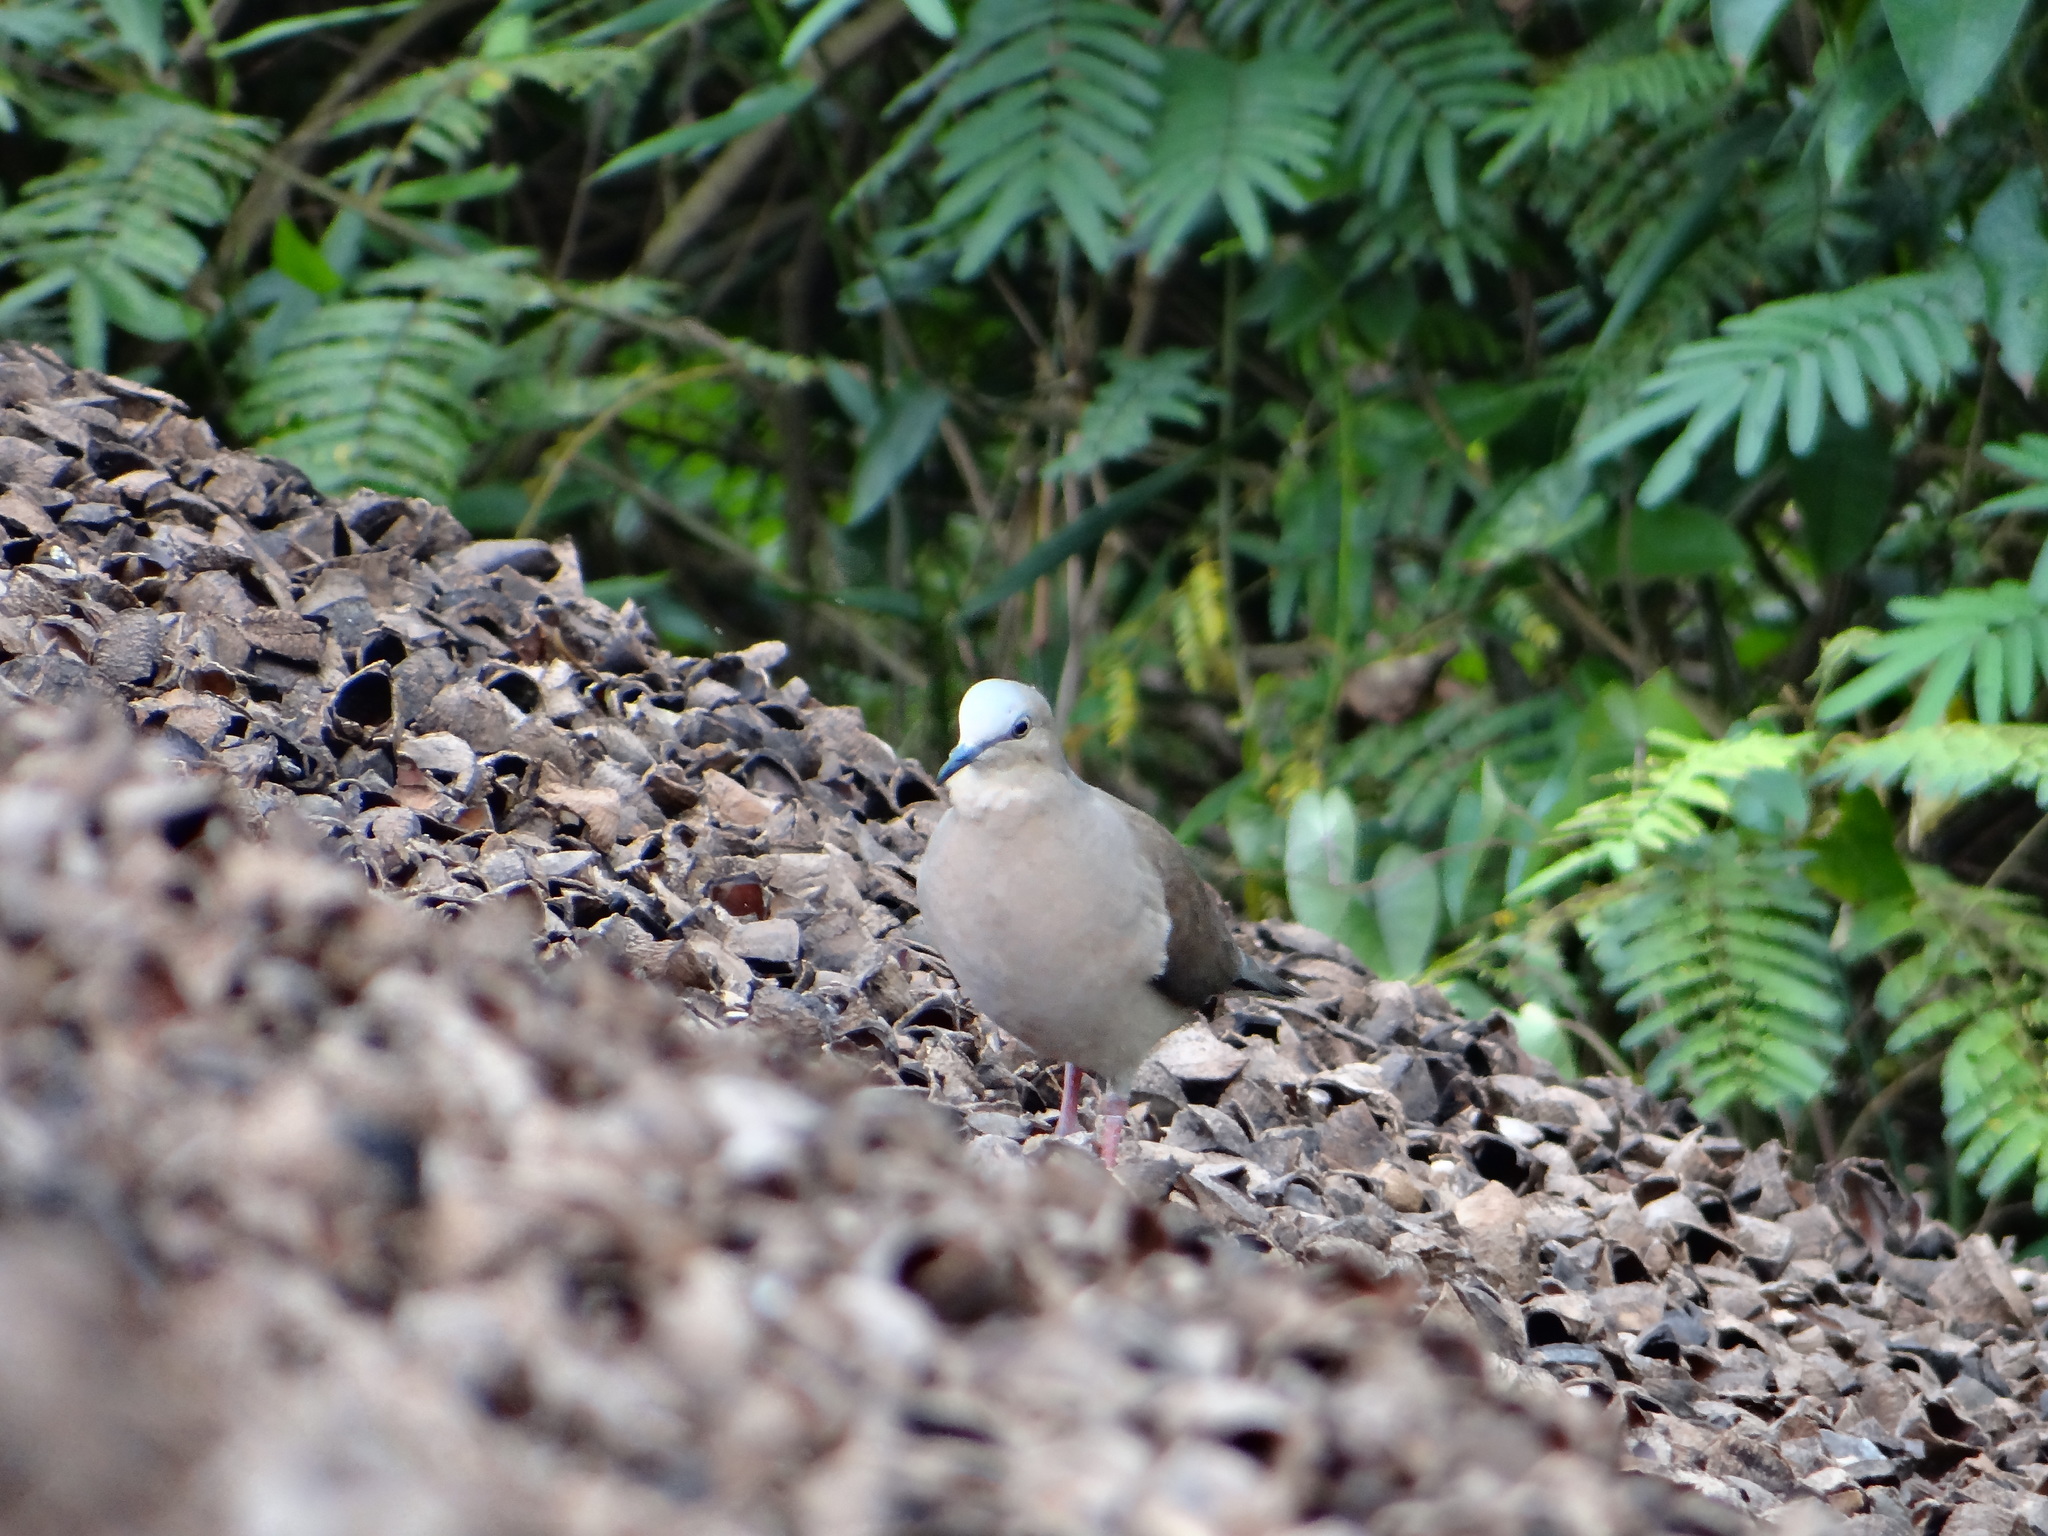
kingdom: Animalia
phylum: Chordata
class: Aves
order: Columbiformes
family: Columbidae
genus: Leptotila
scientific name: Leptotila verreauxi
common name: White-tipped dove
